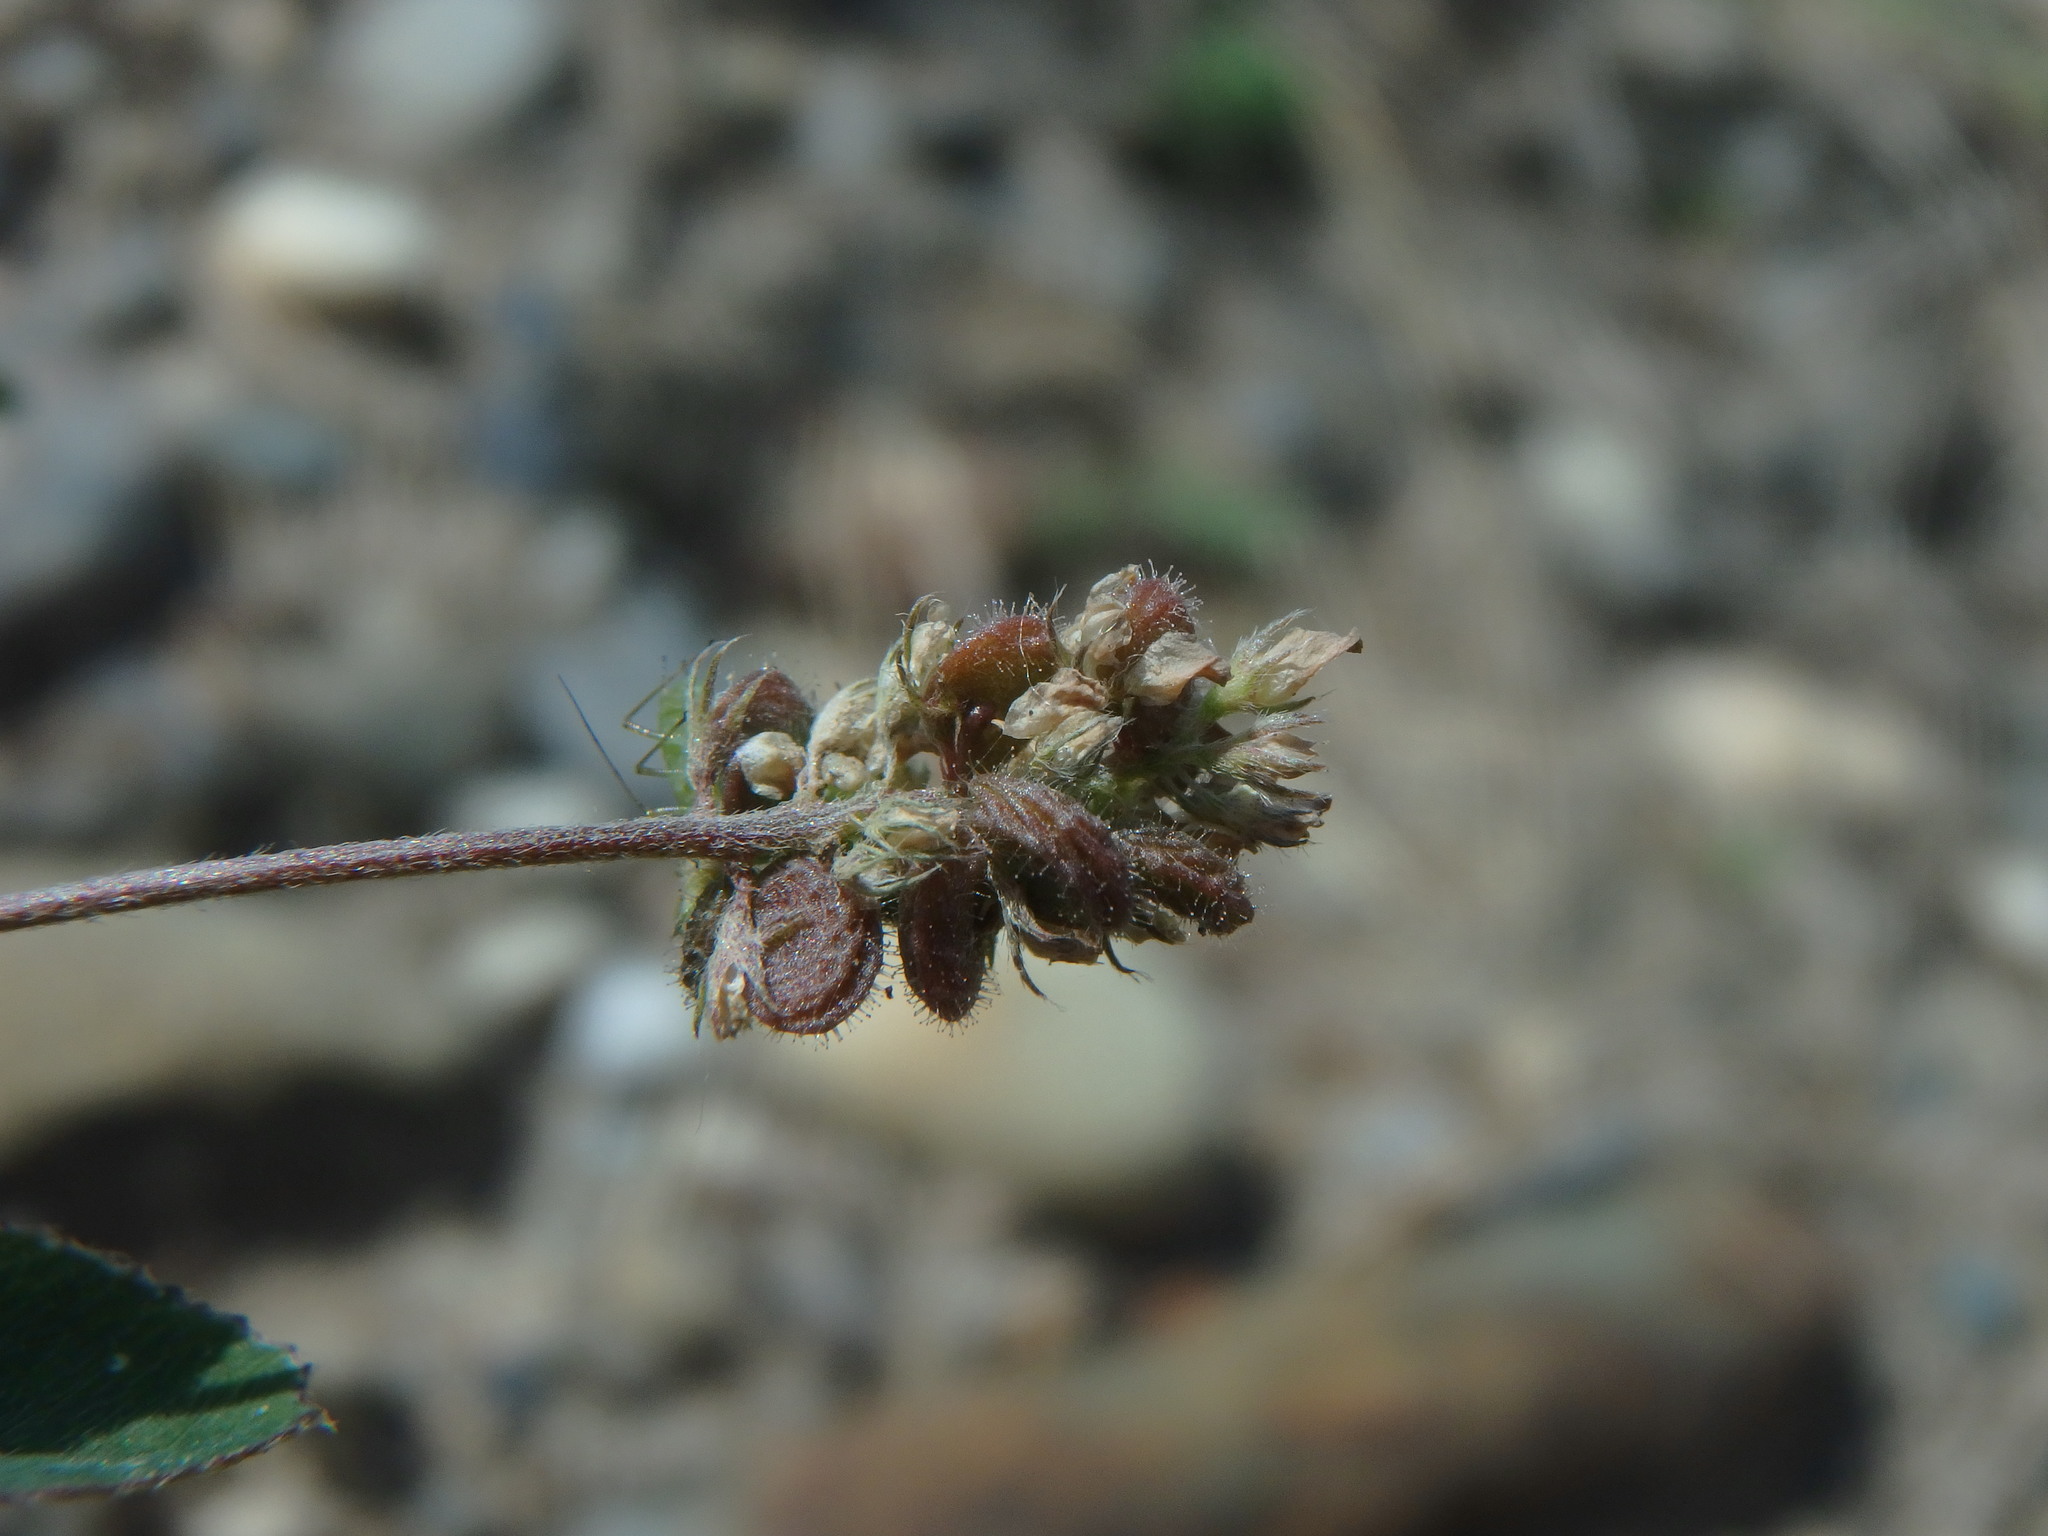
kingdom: Plantae
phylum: Tracheophyta
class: Magnoliopsida
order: Fabales
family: Fabaceae
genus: Medicago
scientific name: Medicago lupulina
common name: Black medick
